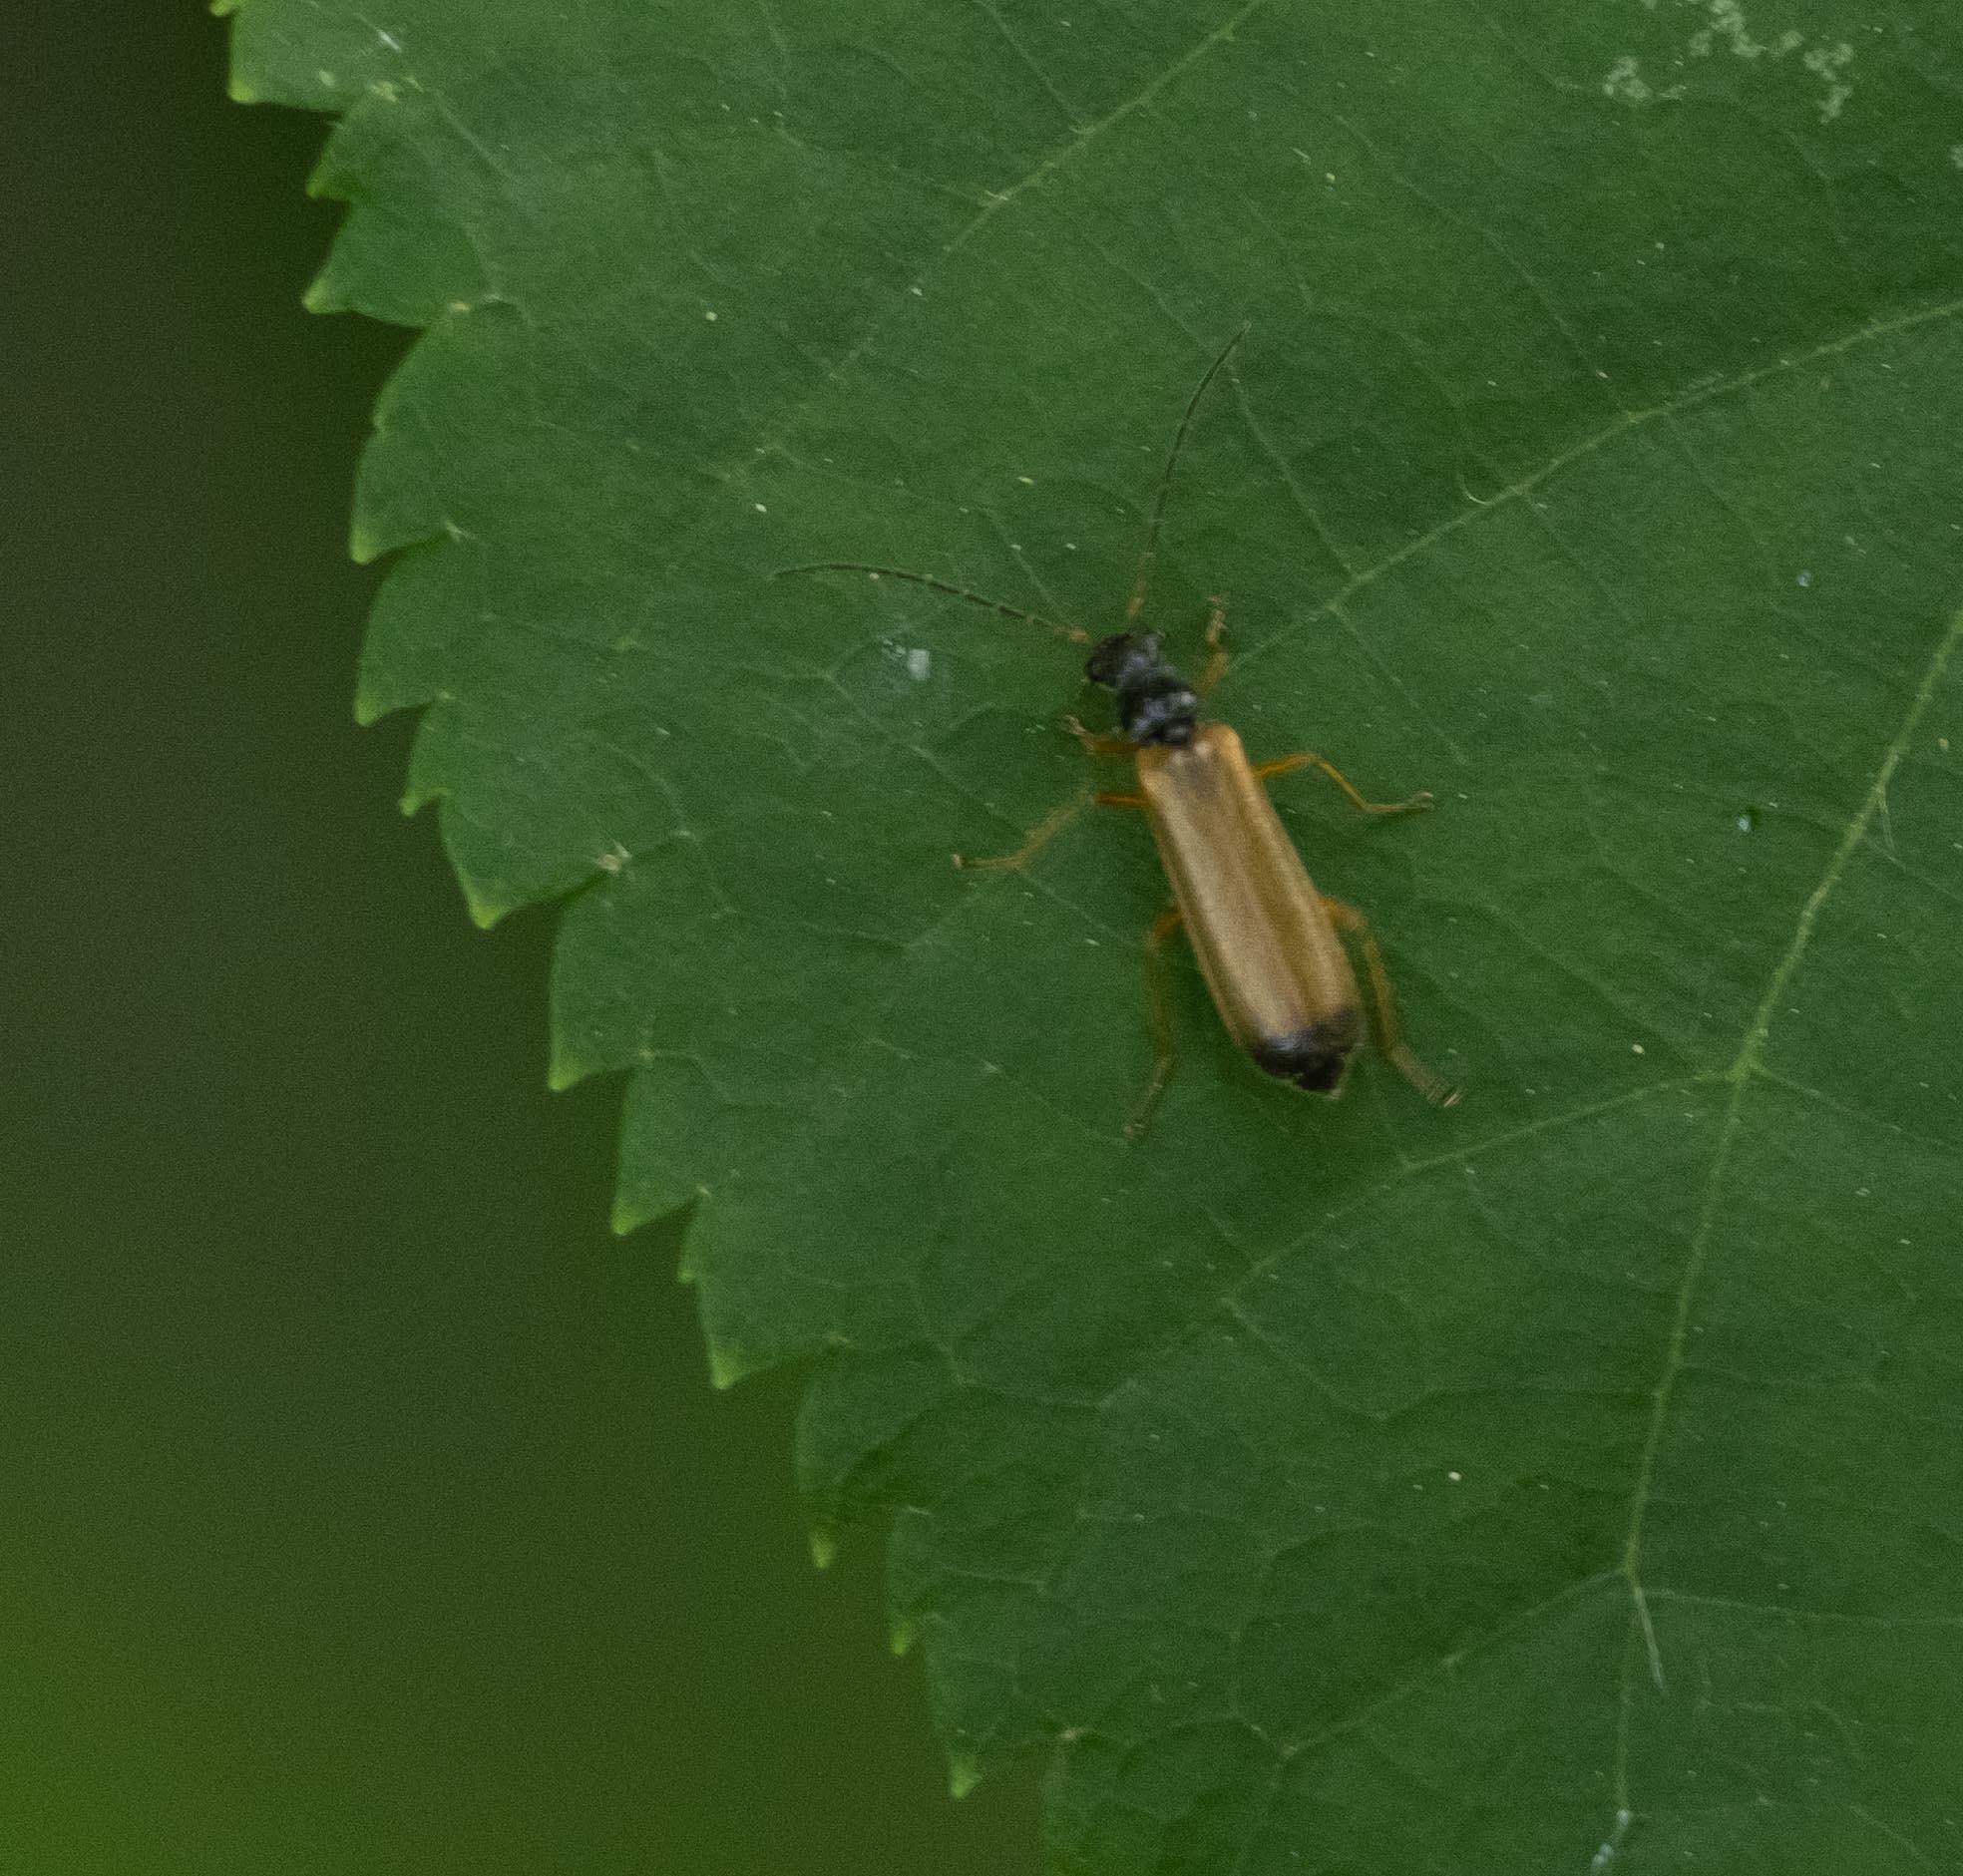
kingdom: Animalia
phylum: Arthropoda
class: Insecta
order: Coleoptera
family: Cantharidae
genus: Rhagonycha
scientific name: Rhagonycha lignosa
